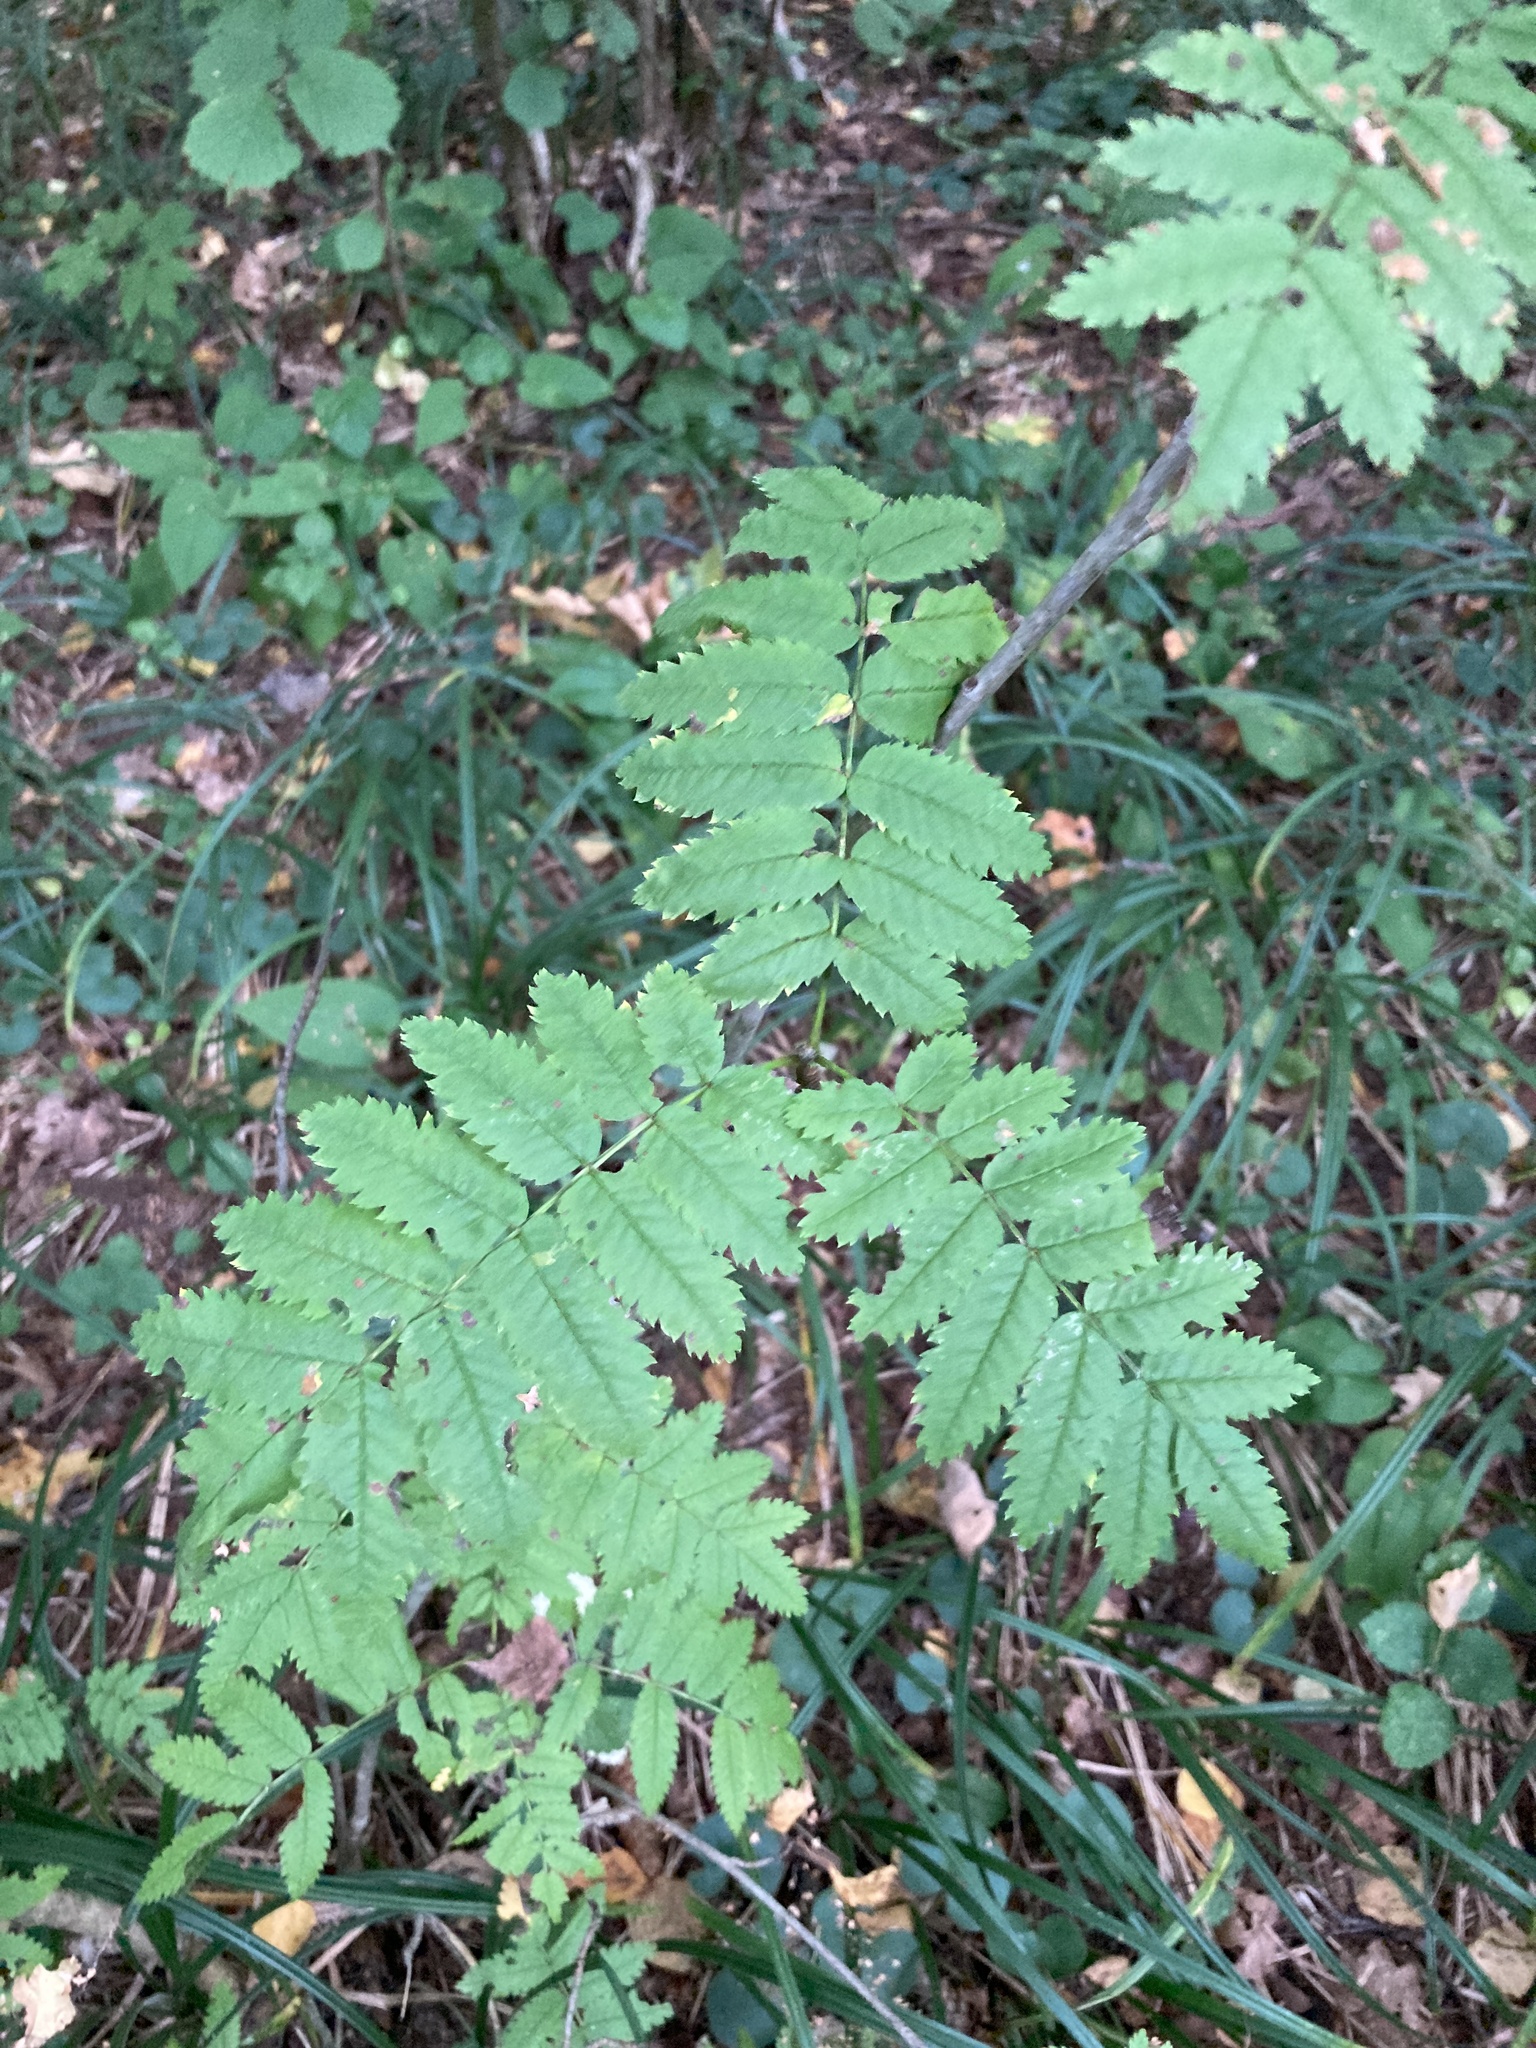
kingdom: Plantae
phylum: Tracheophyta
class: Magnoliopsida
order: Rosales
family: Rosaceae
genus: Sorbus
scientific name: Sorbus aucuparia
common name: Rowan
